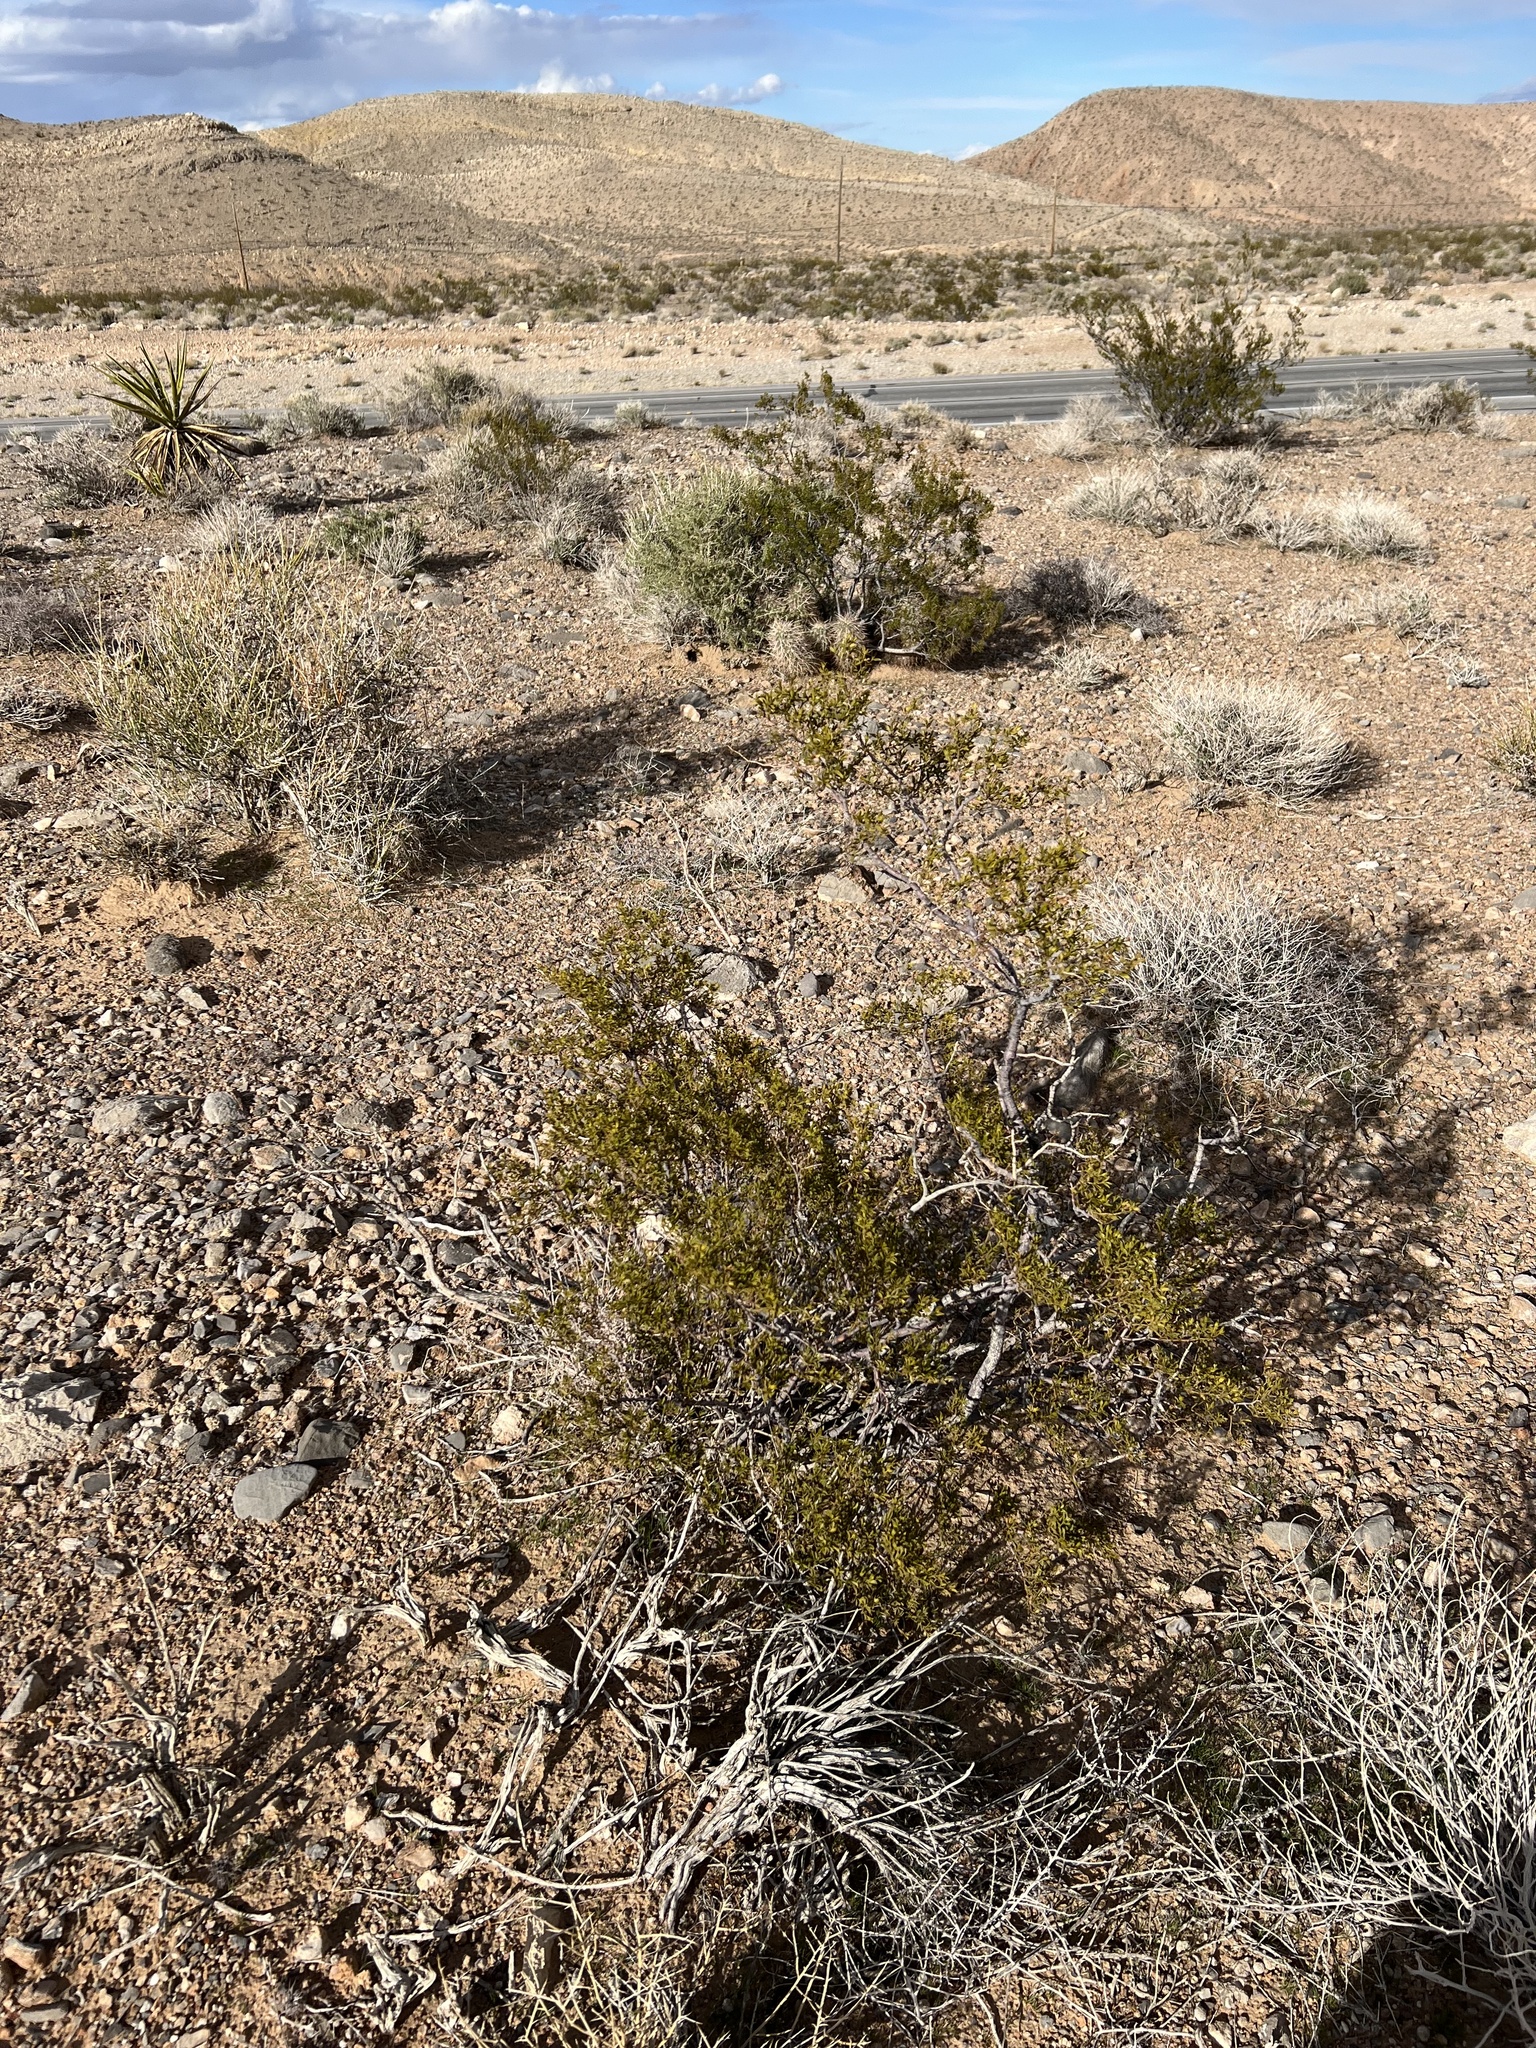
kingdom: Plantae
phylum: Tracheophyta
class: Magnoliopsida
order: Zygophyllales
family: Zygophyllaceae
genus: Larrea
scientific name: Larrea tridentata
